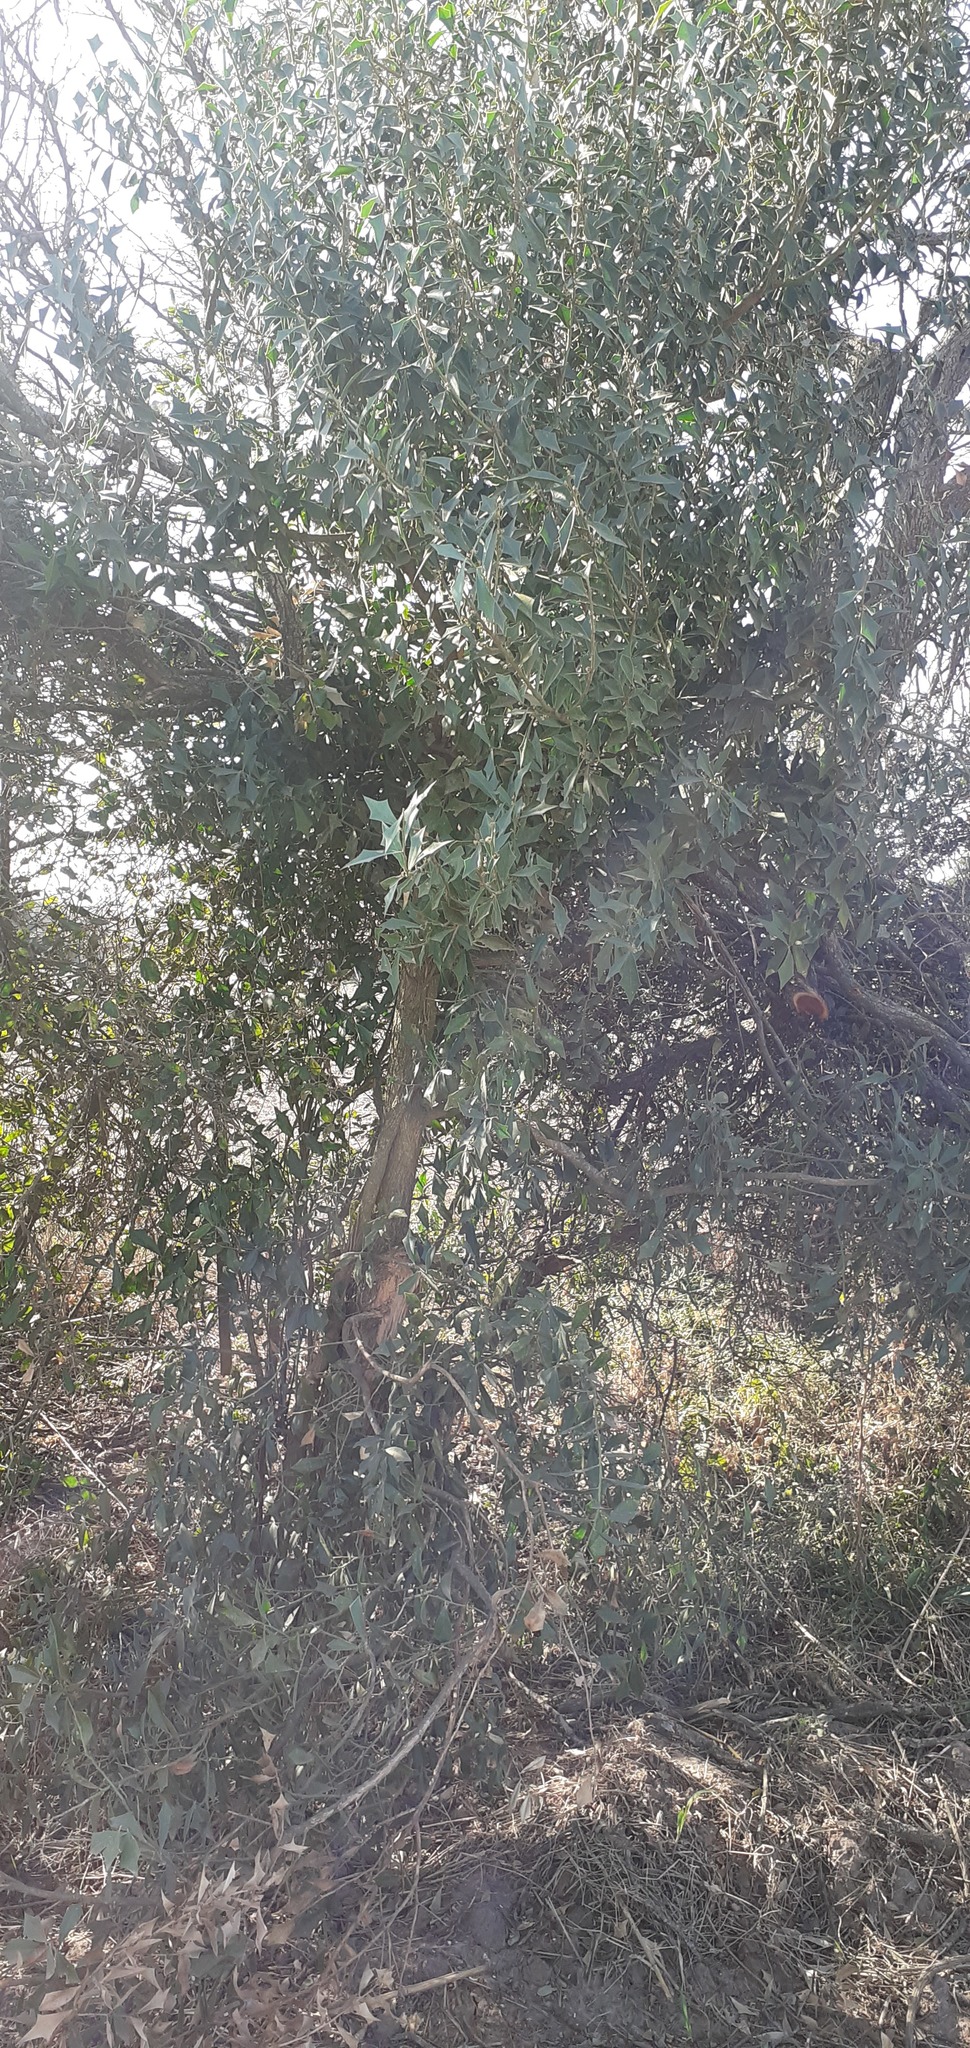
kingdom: Plantae
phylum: Tracheophyta
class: Magnoliopsida
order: Santalales
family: Cervantesiaceae
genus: Jodina
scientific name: Jodina rhombifolia
